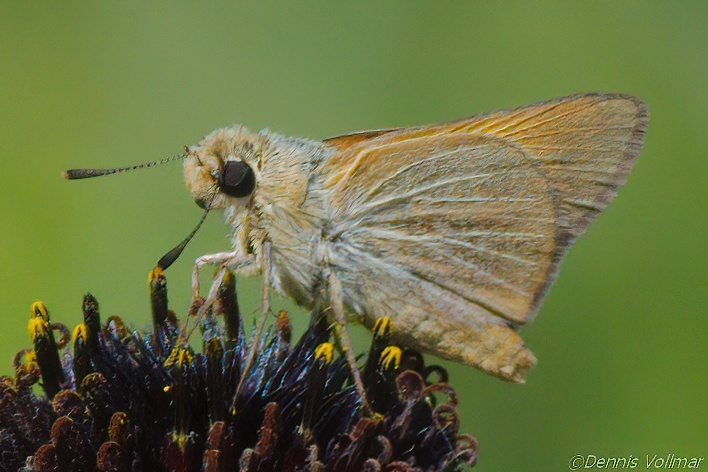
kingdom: Animalia
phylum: Arthropoda
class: Insecta
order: Lepidoptera
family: Hesperiidae
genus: Atrytone
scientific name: Atrytone arogos
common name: Arogos skipper
